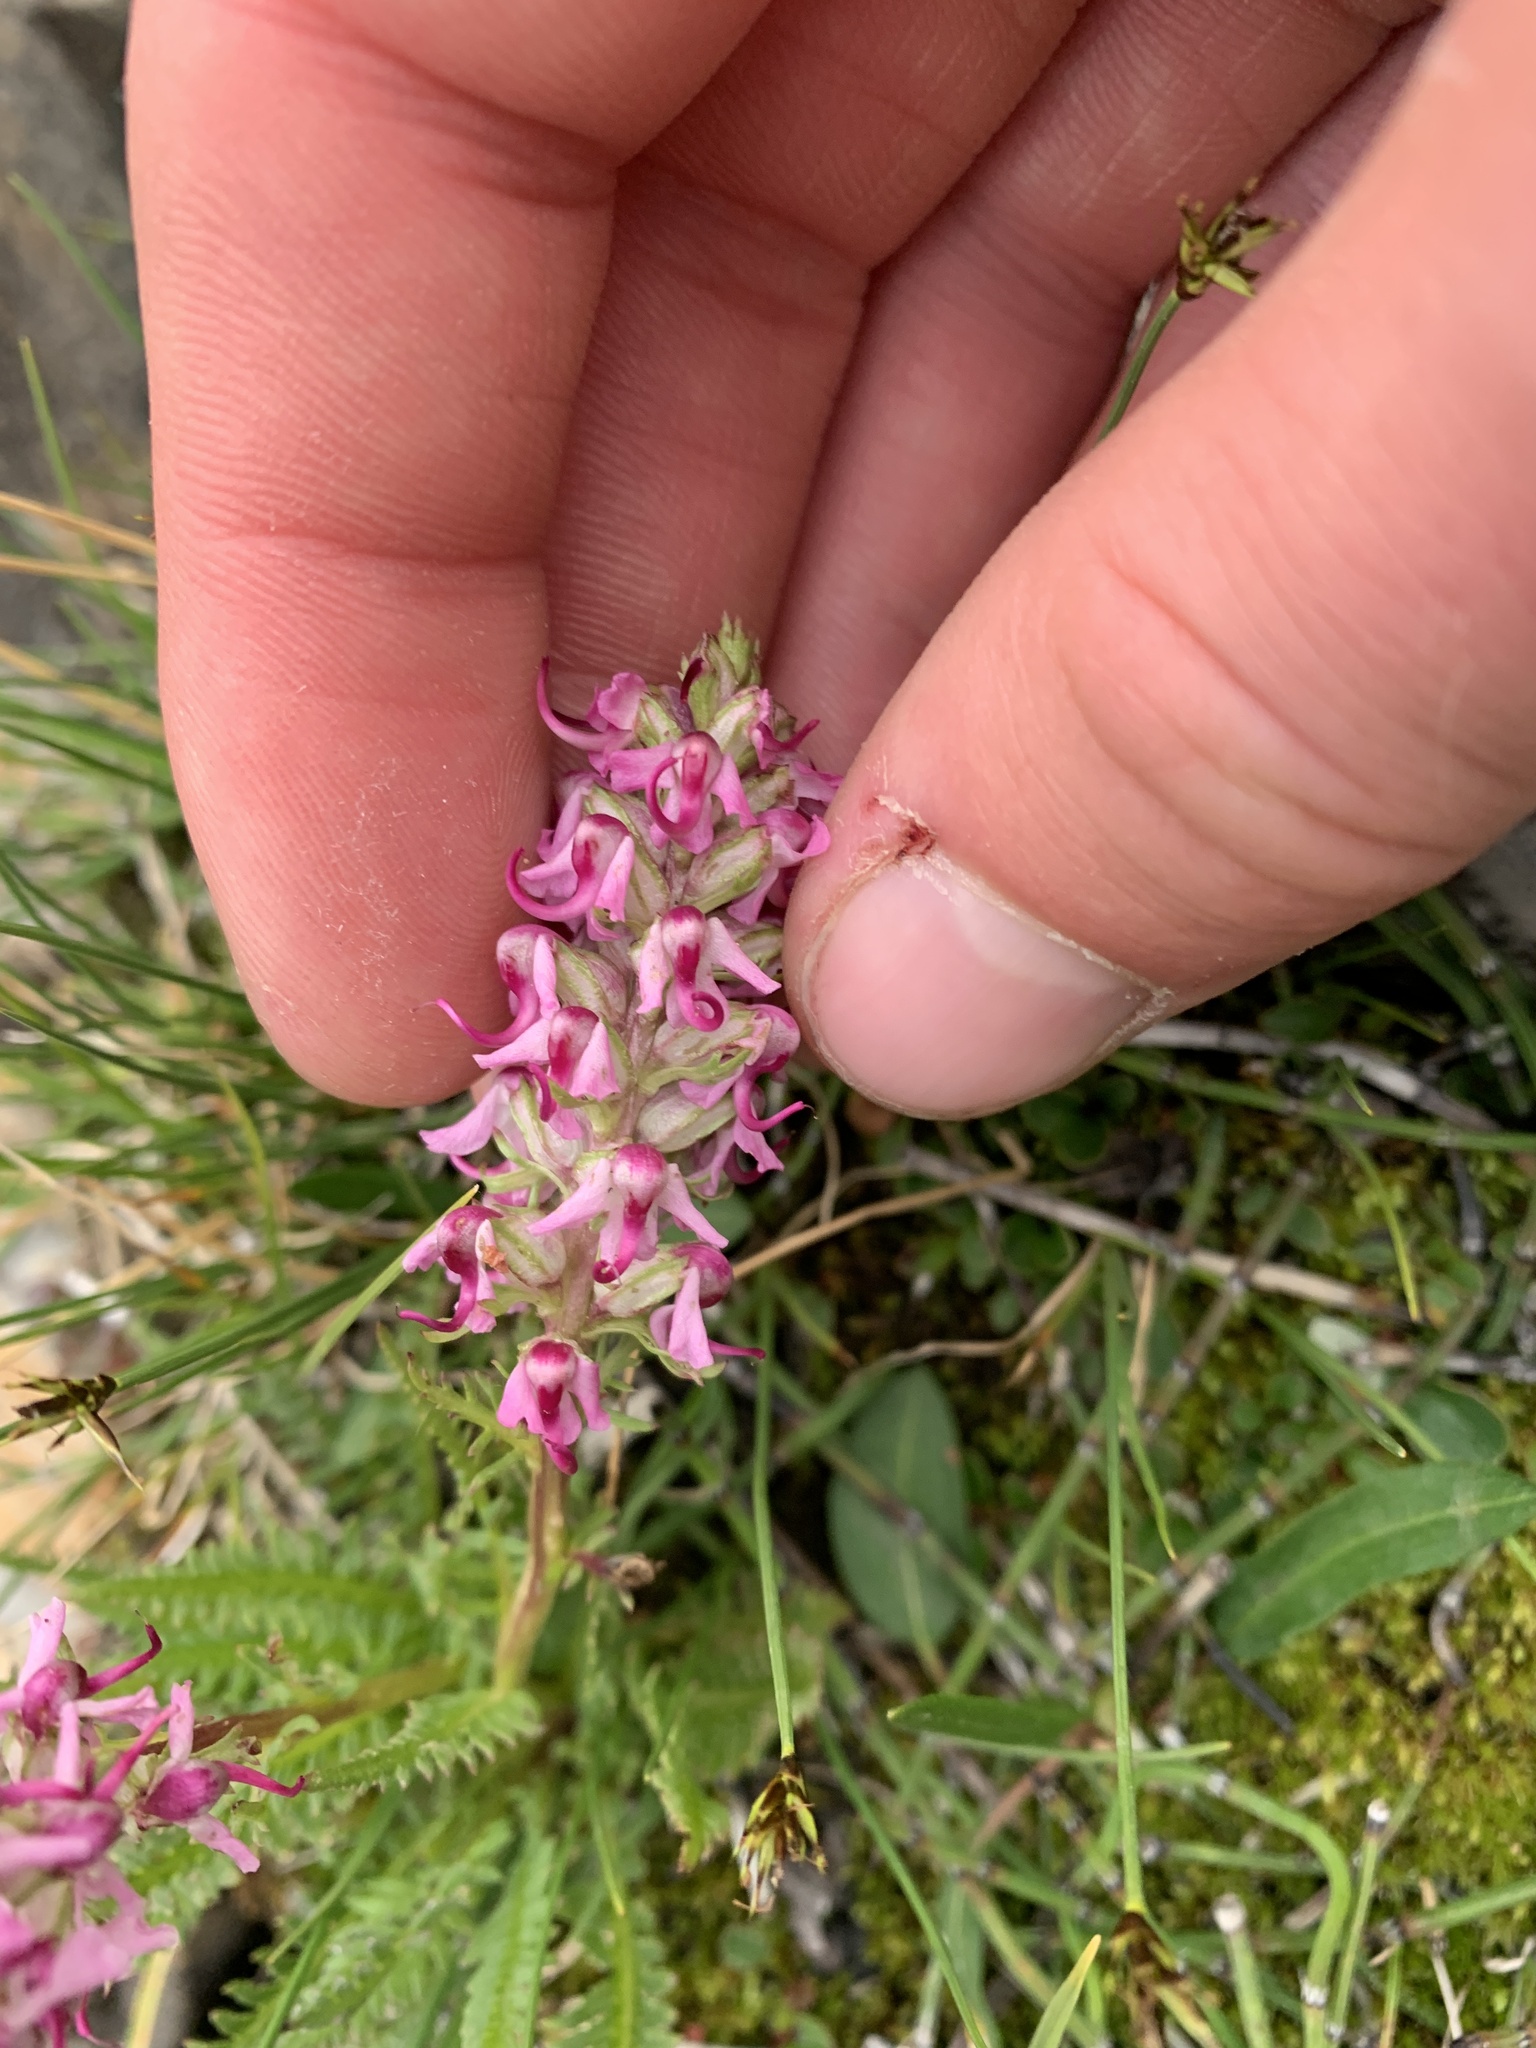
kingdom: Plantae
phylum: Tracheophyta
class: Magnoliopsida
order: Lamiales
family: Orobanchaceae
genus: Pedicularis
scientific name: Pedicularis groenlandica
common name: Elephant's-head
